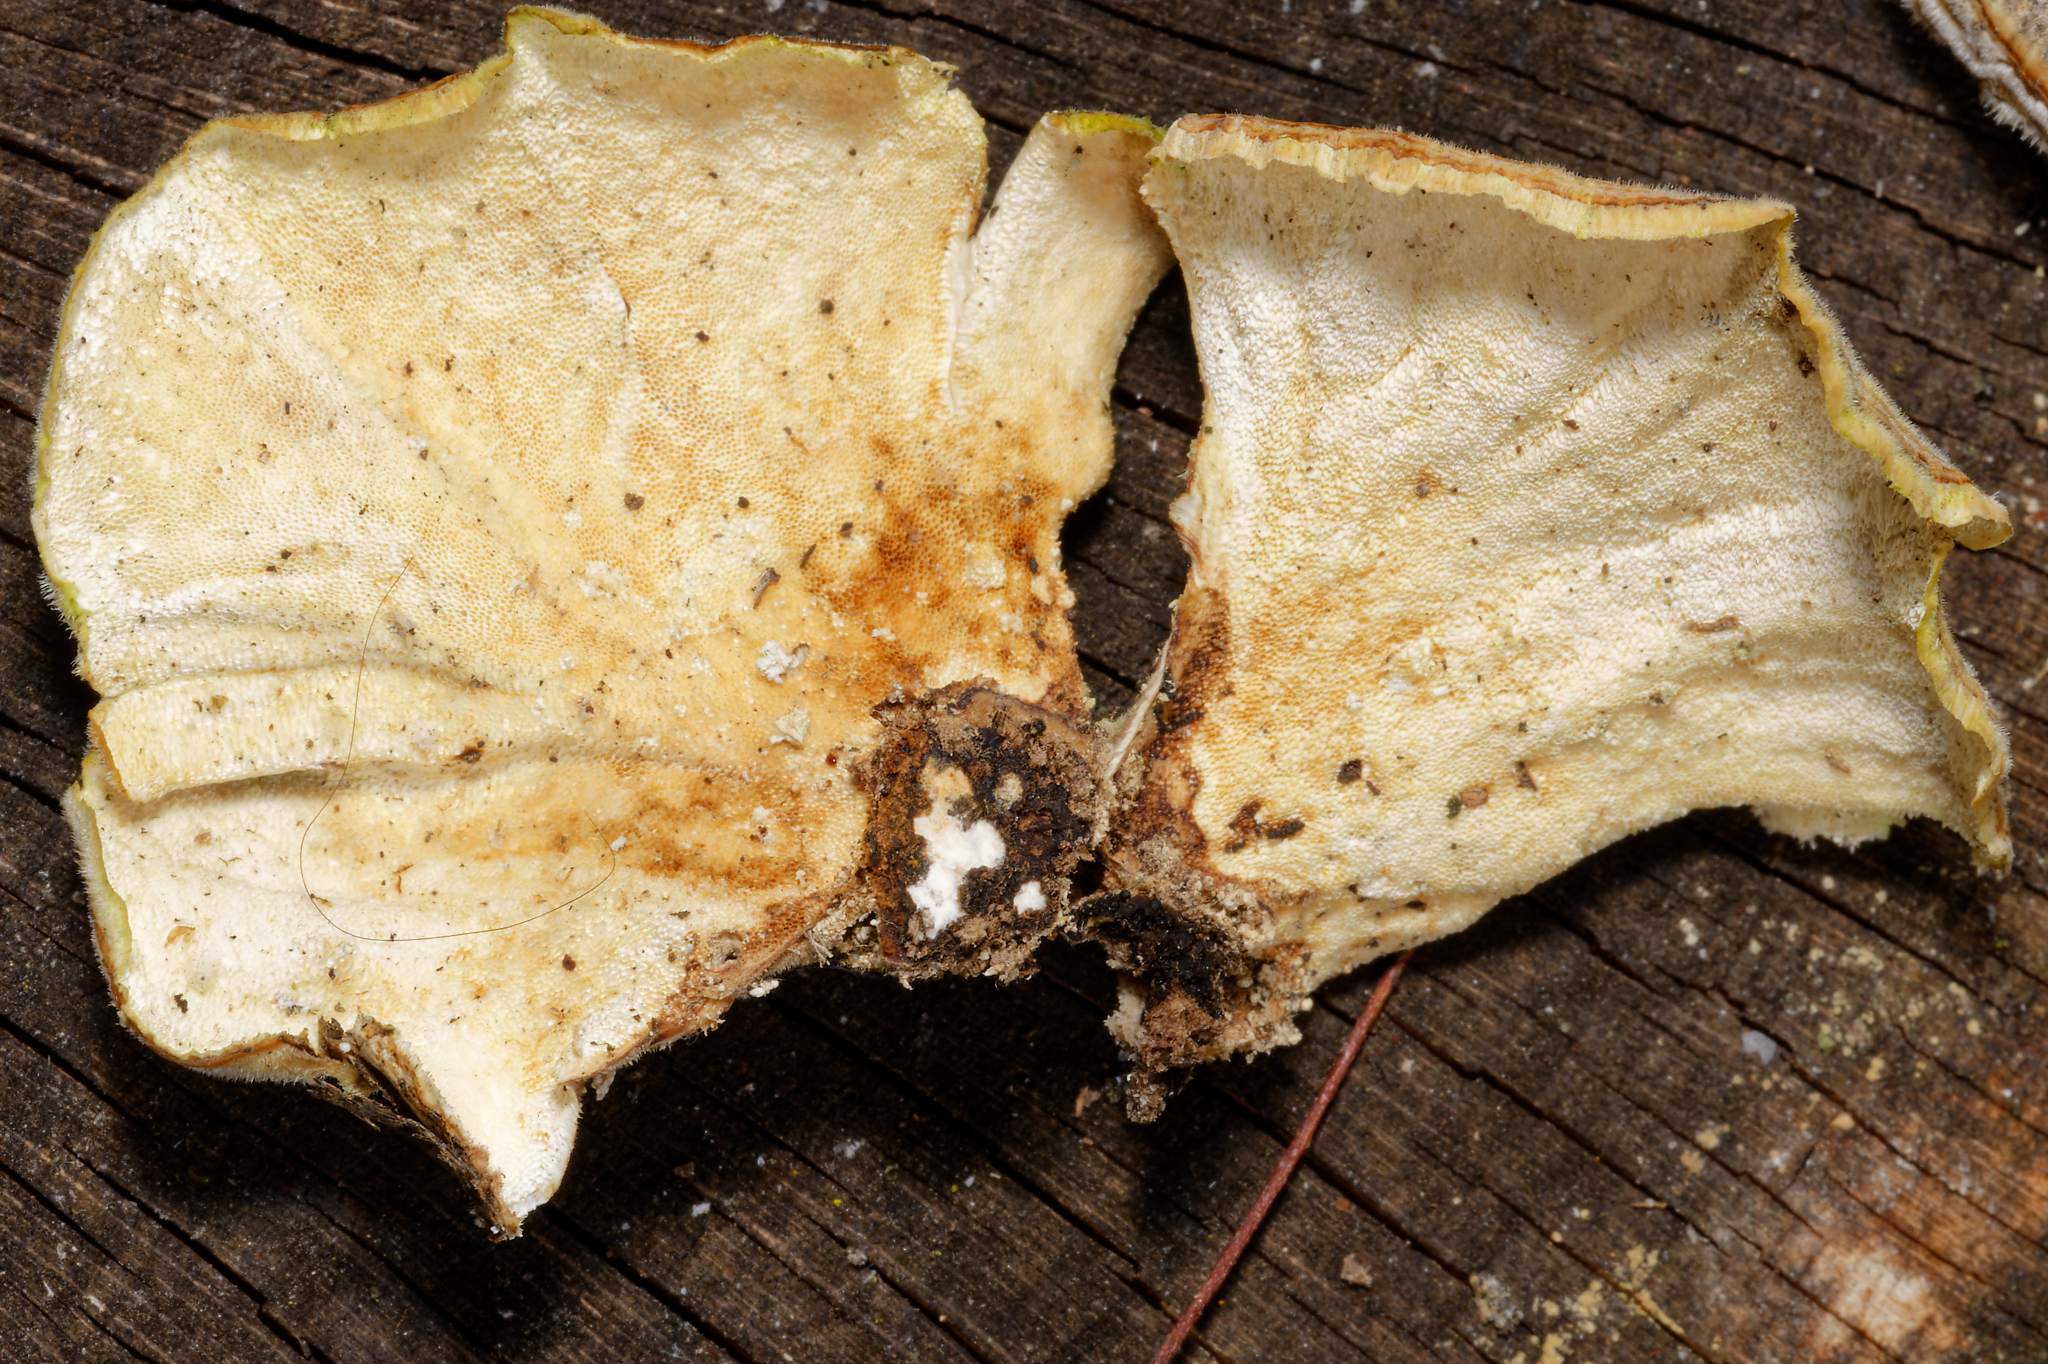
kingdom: Fungi
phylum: Basidiomycota
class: Agaricomycetes
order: Polyporales
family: Polyporaceae
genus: Trametes
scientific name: Trametes versicolor
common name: Turkeytail
